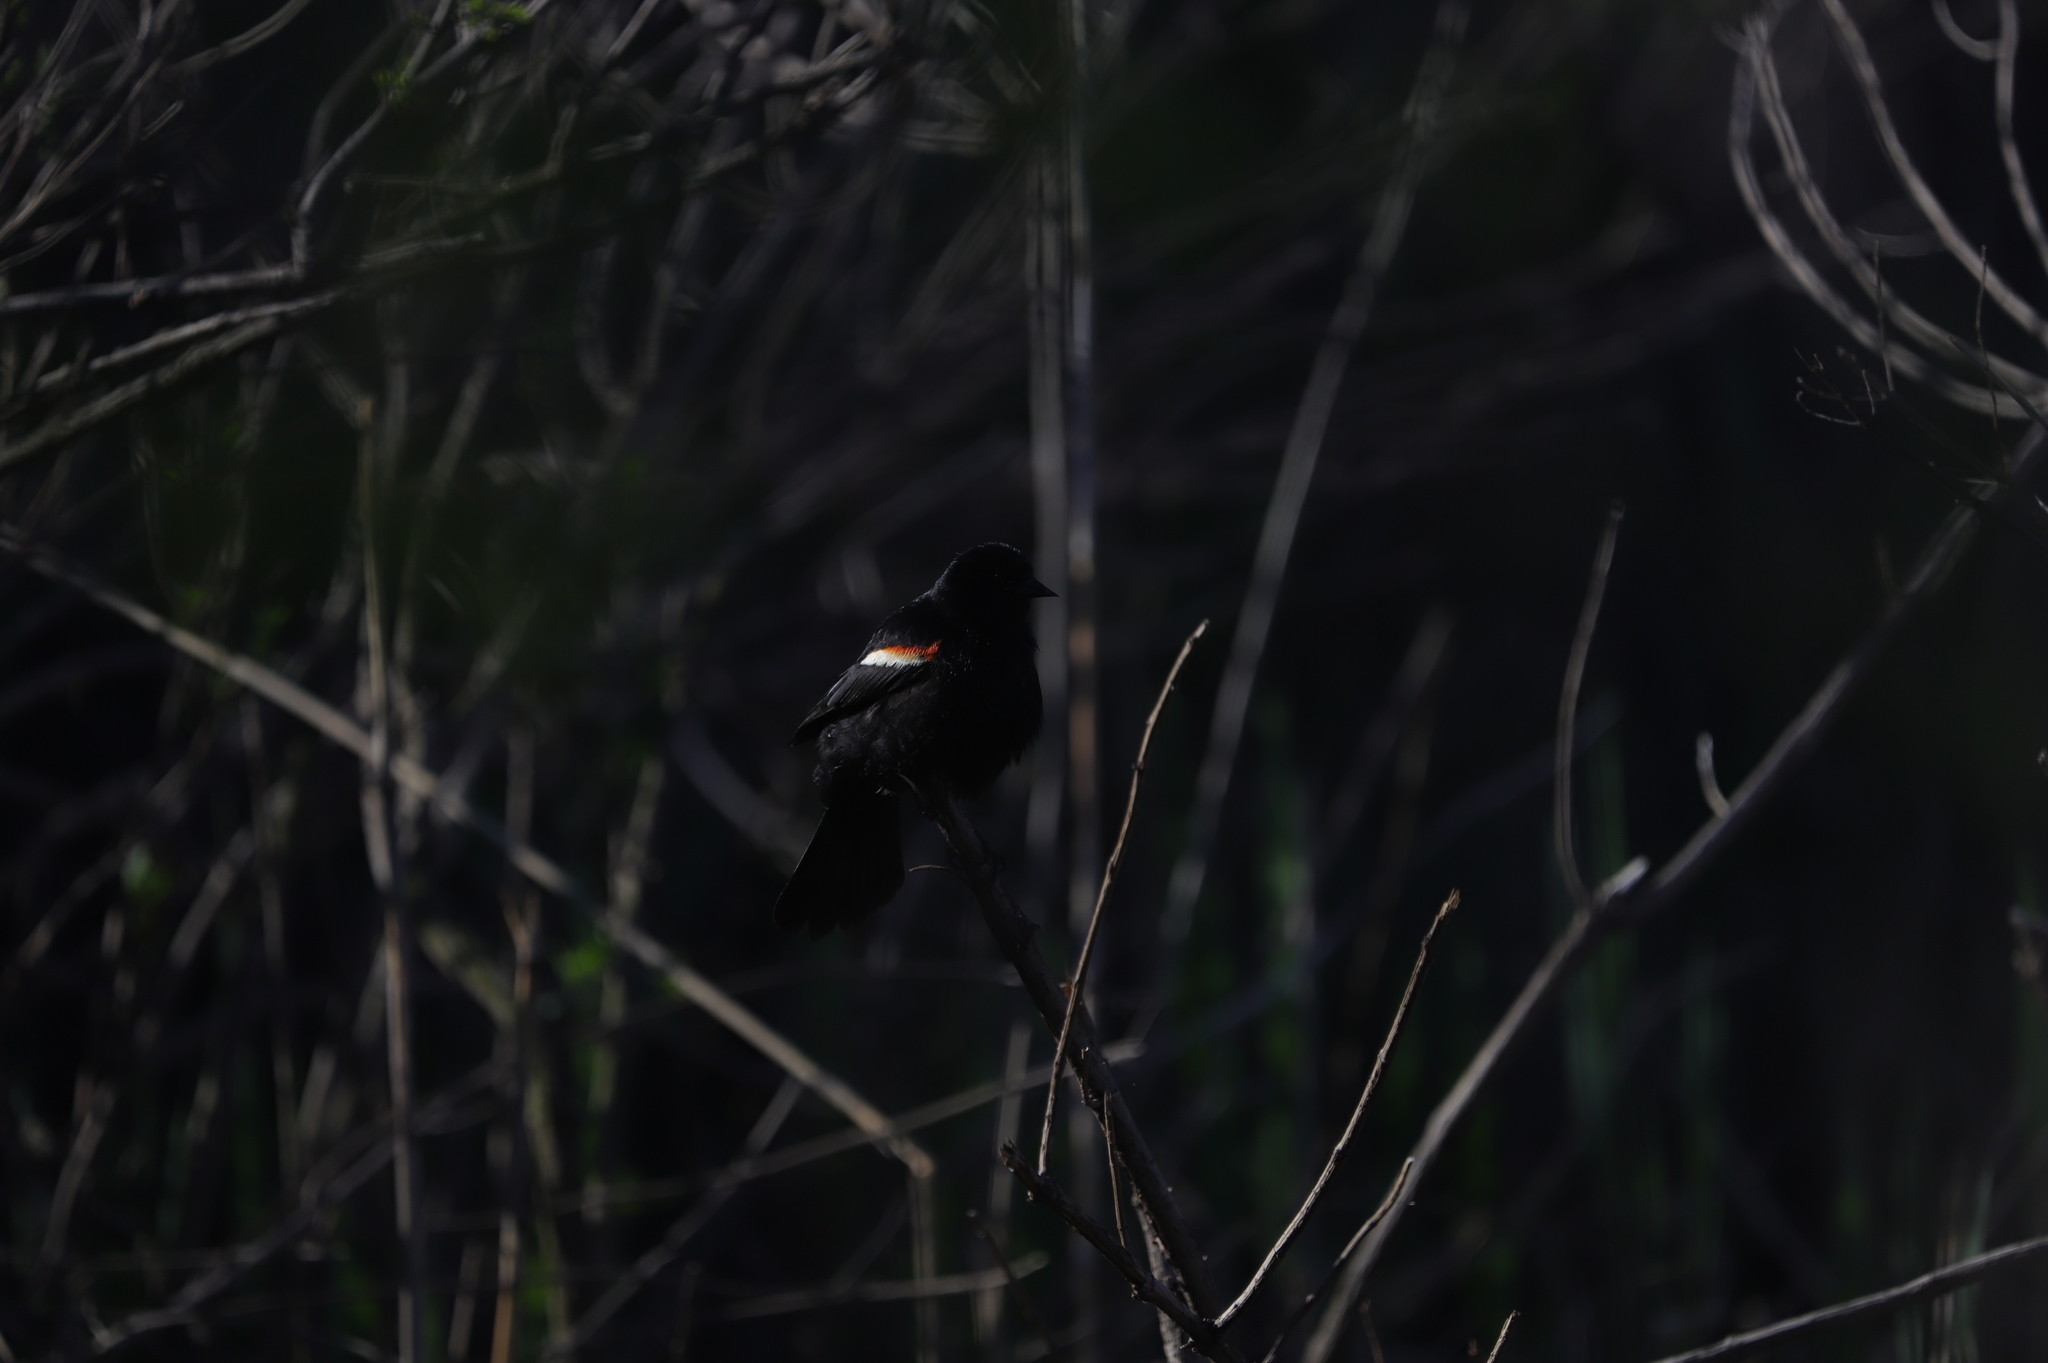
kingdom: Animalia
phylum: Chordata
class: Aves
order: Passeriformes
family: Icteridae
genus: Agelaius
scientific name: Agelaius phoeniceus
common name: Red-winged blackbird
